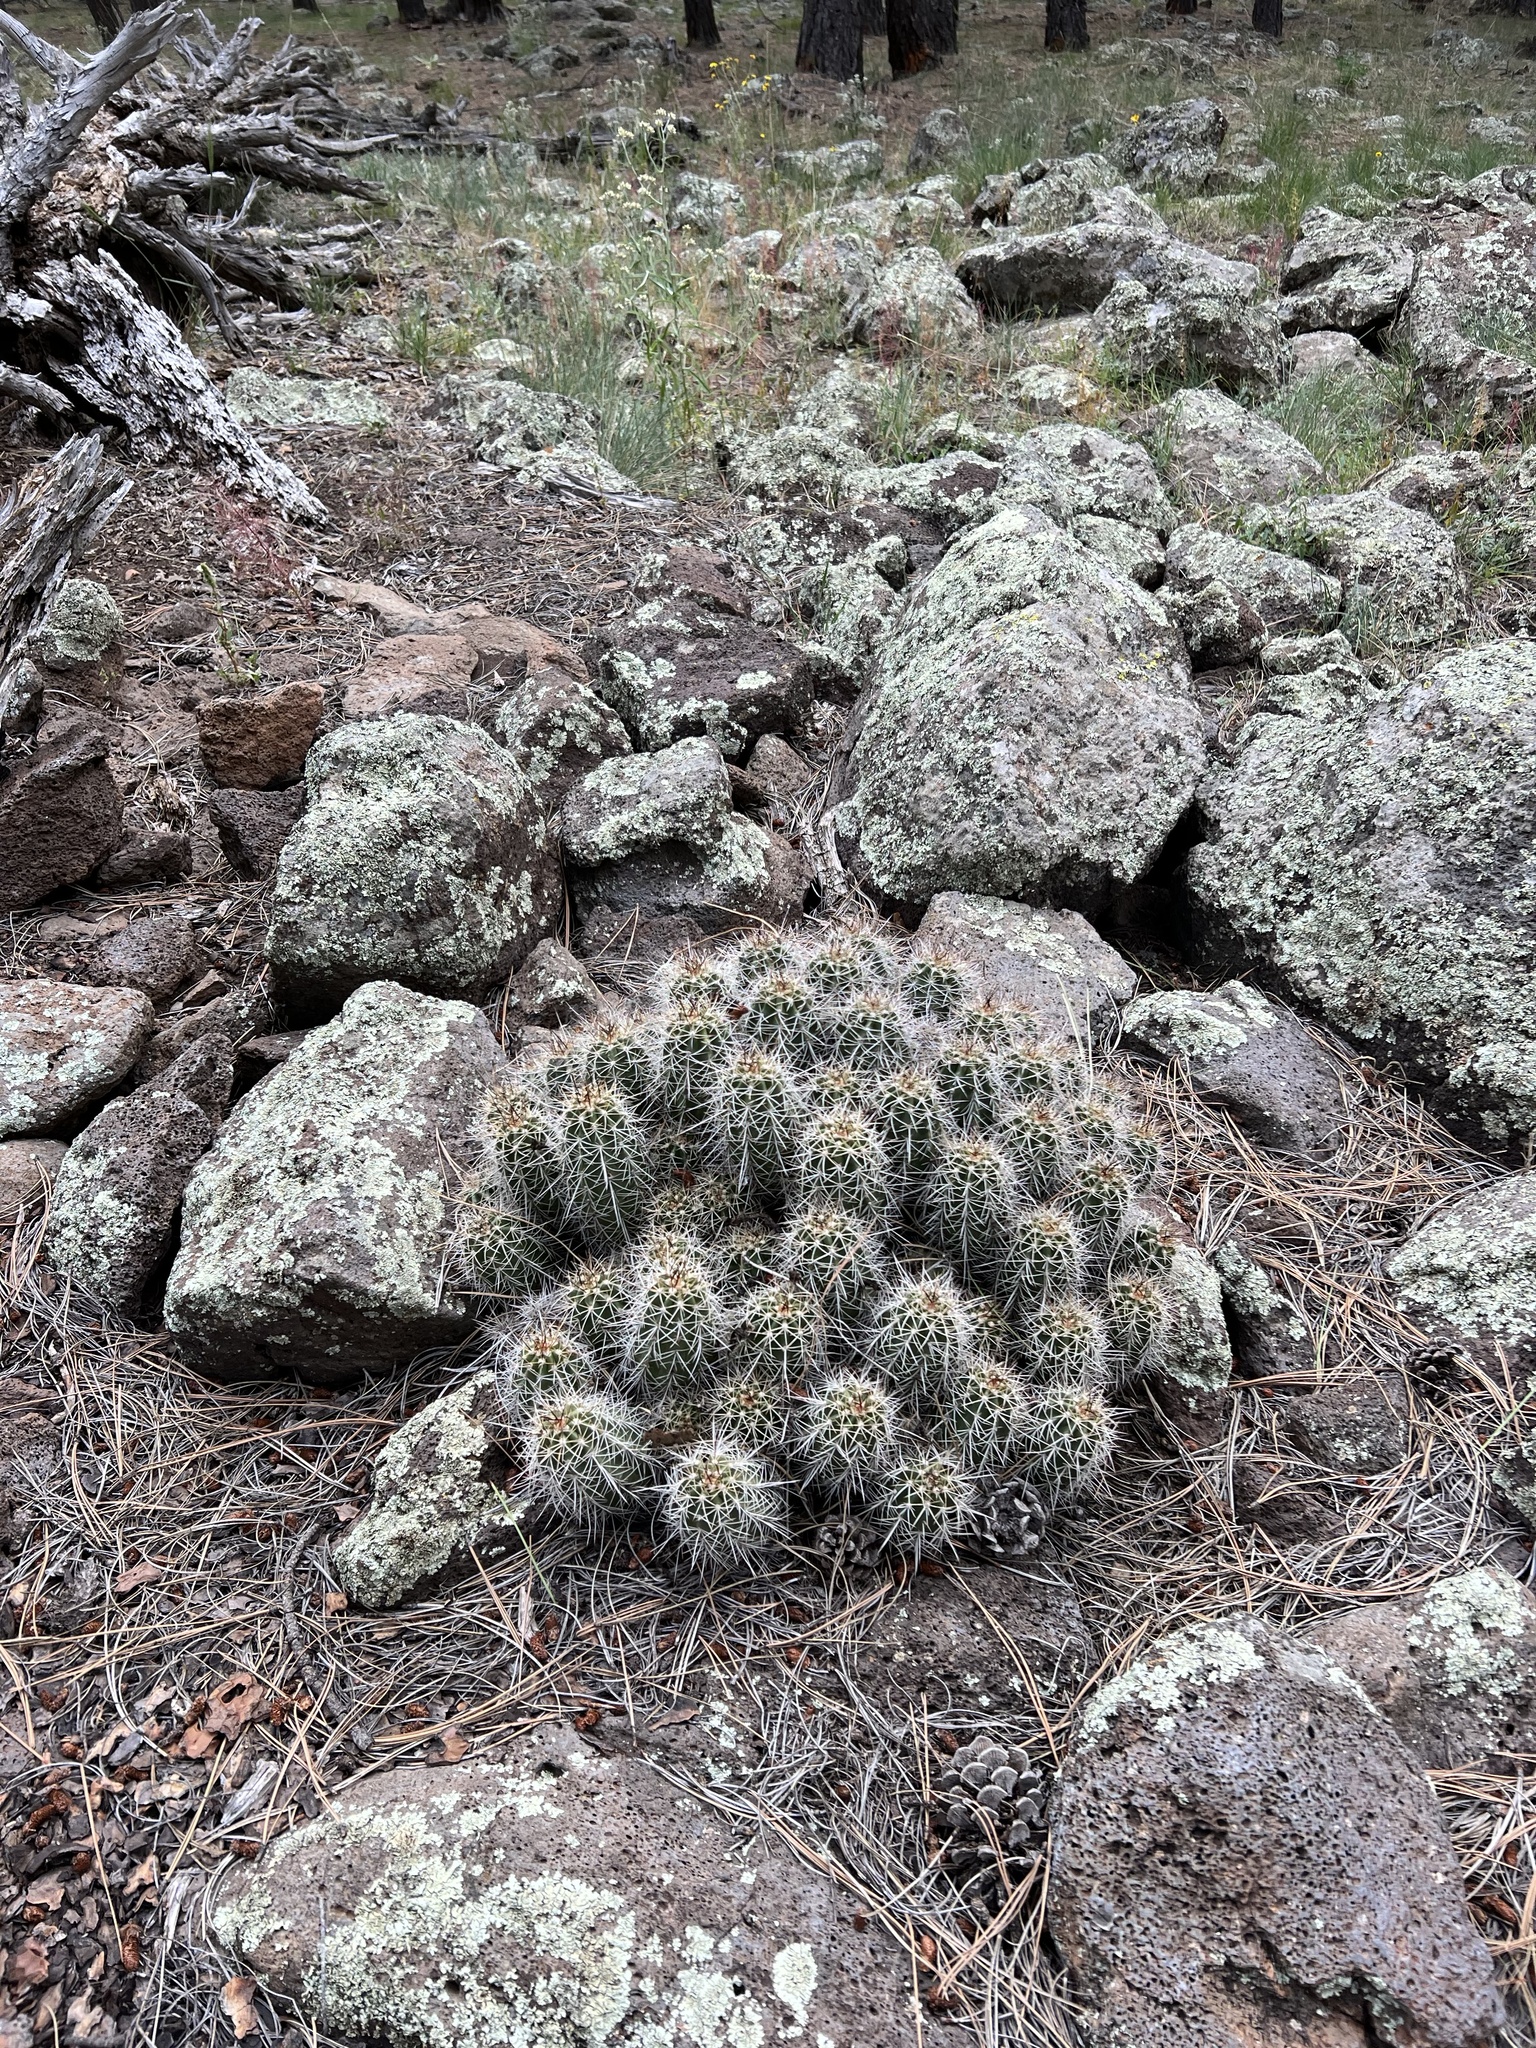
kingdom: Plantae
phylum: Tracheophyta
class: Magnoliopsida
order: Caryophyllales
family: Cactaceae
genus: Echinocereus
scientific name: Echinocereus bakeri
